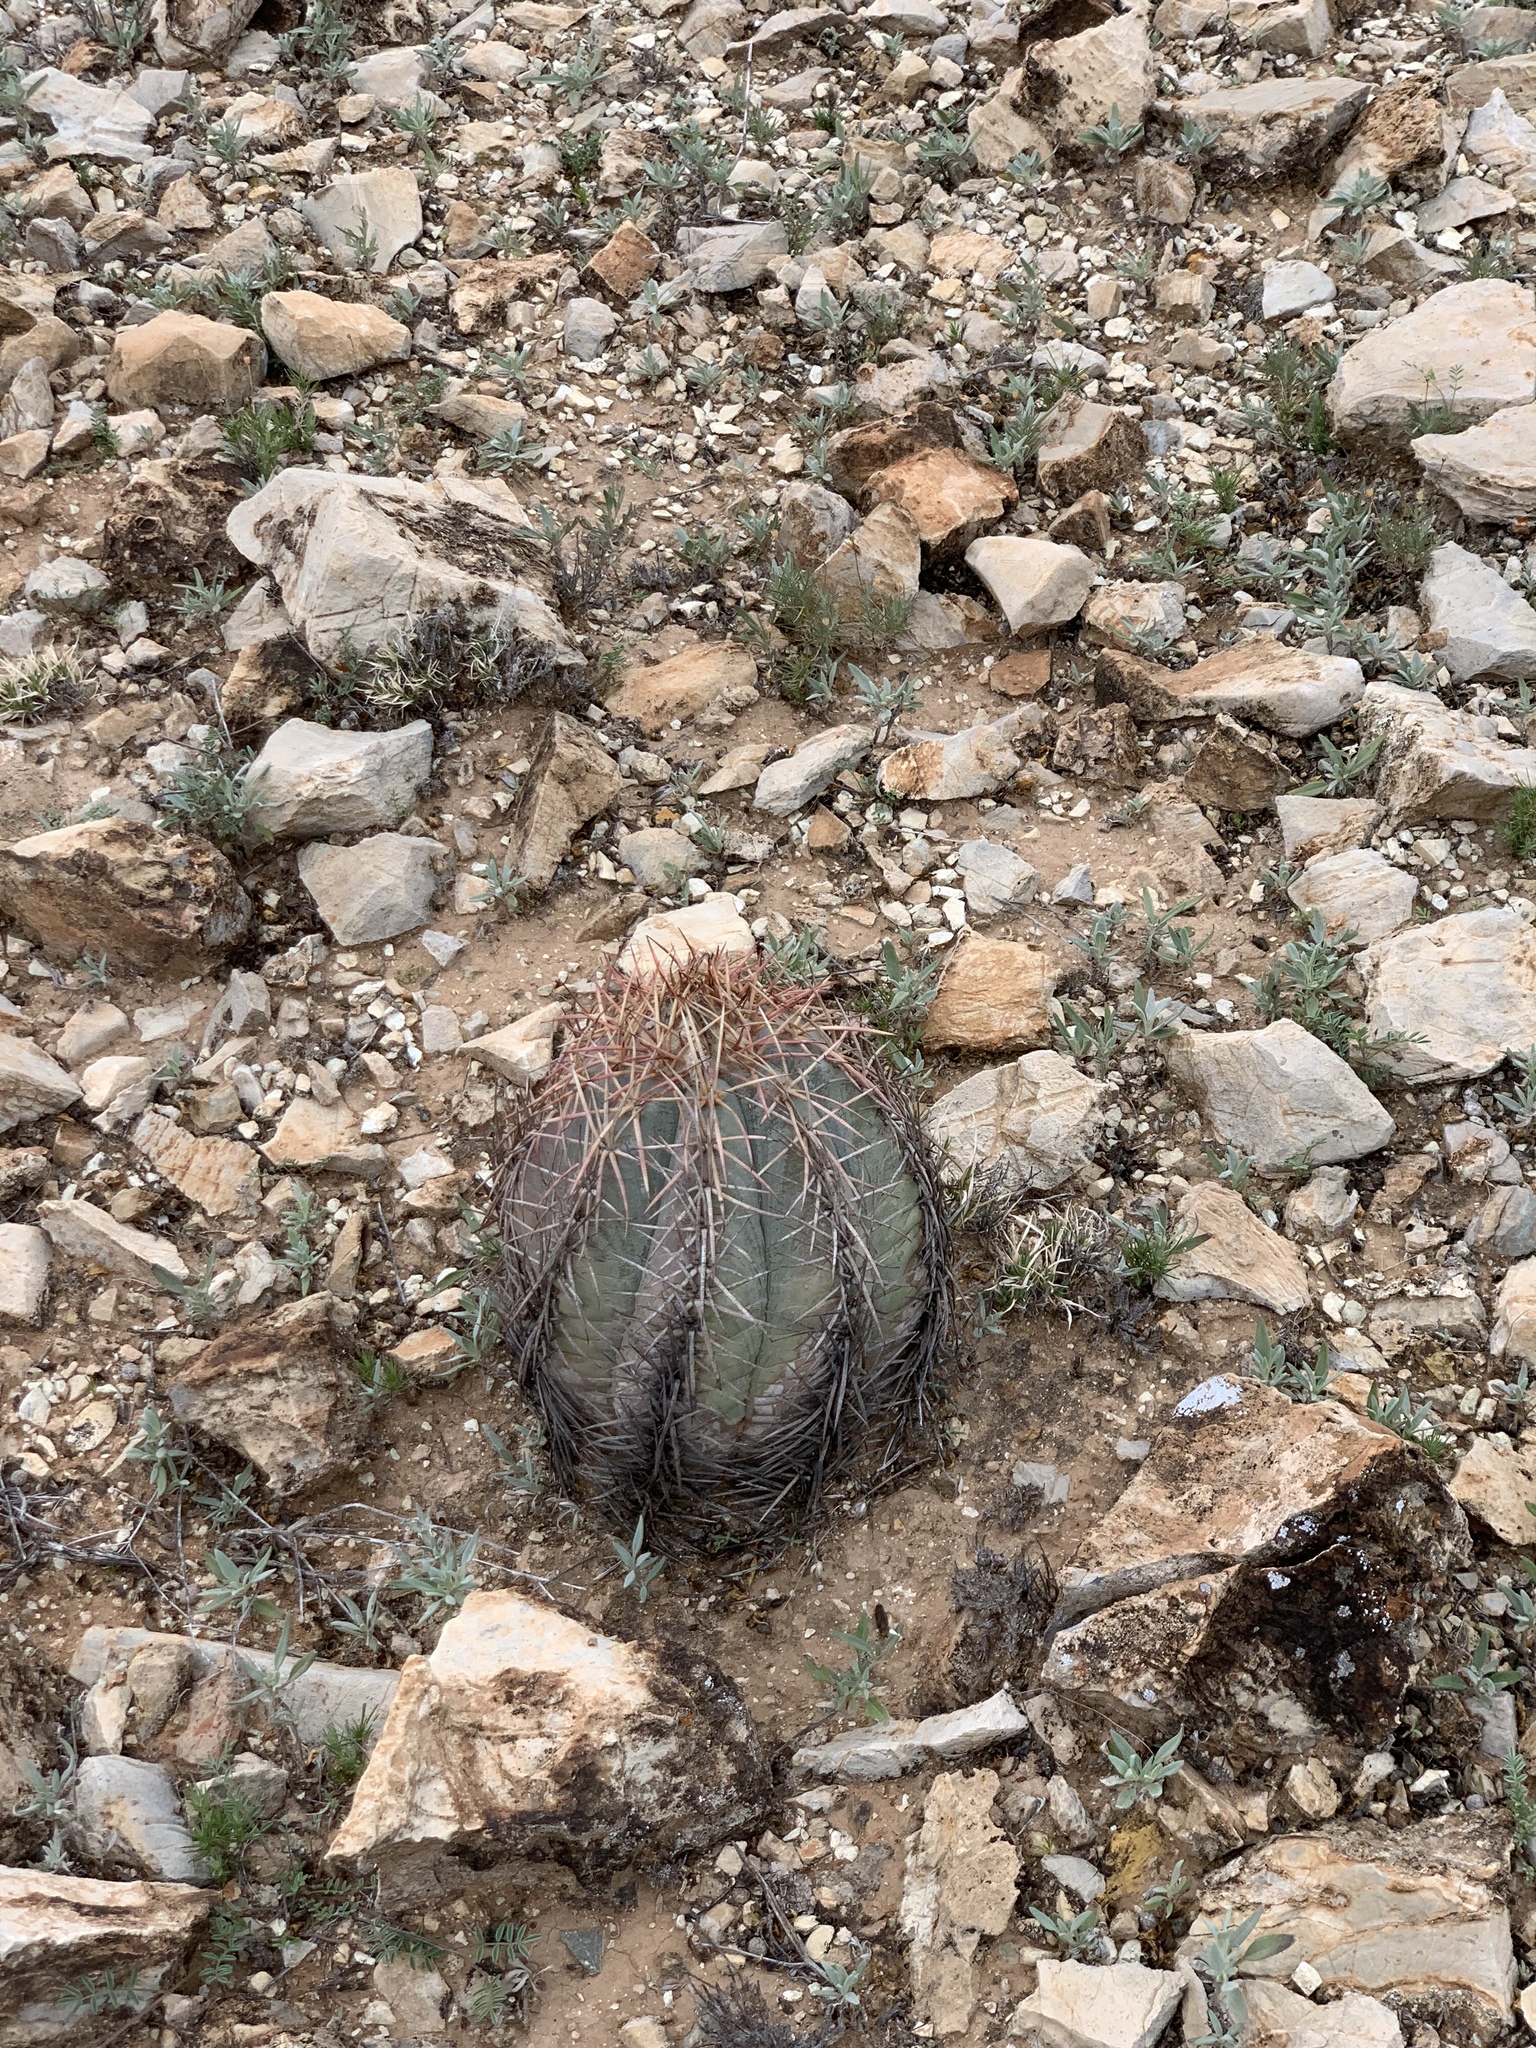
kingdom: Plantae
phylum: Tracheophyta
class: Magnoliopsida
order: Caryophyllales
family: Cactaceae
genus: Echinocactus
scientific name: Echinocactus horizonthalonius
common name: Devilshead
